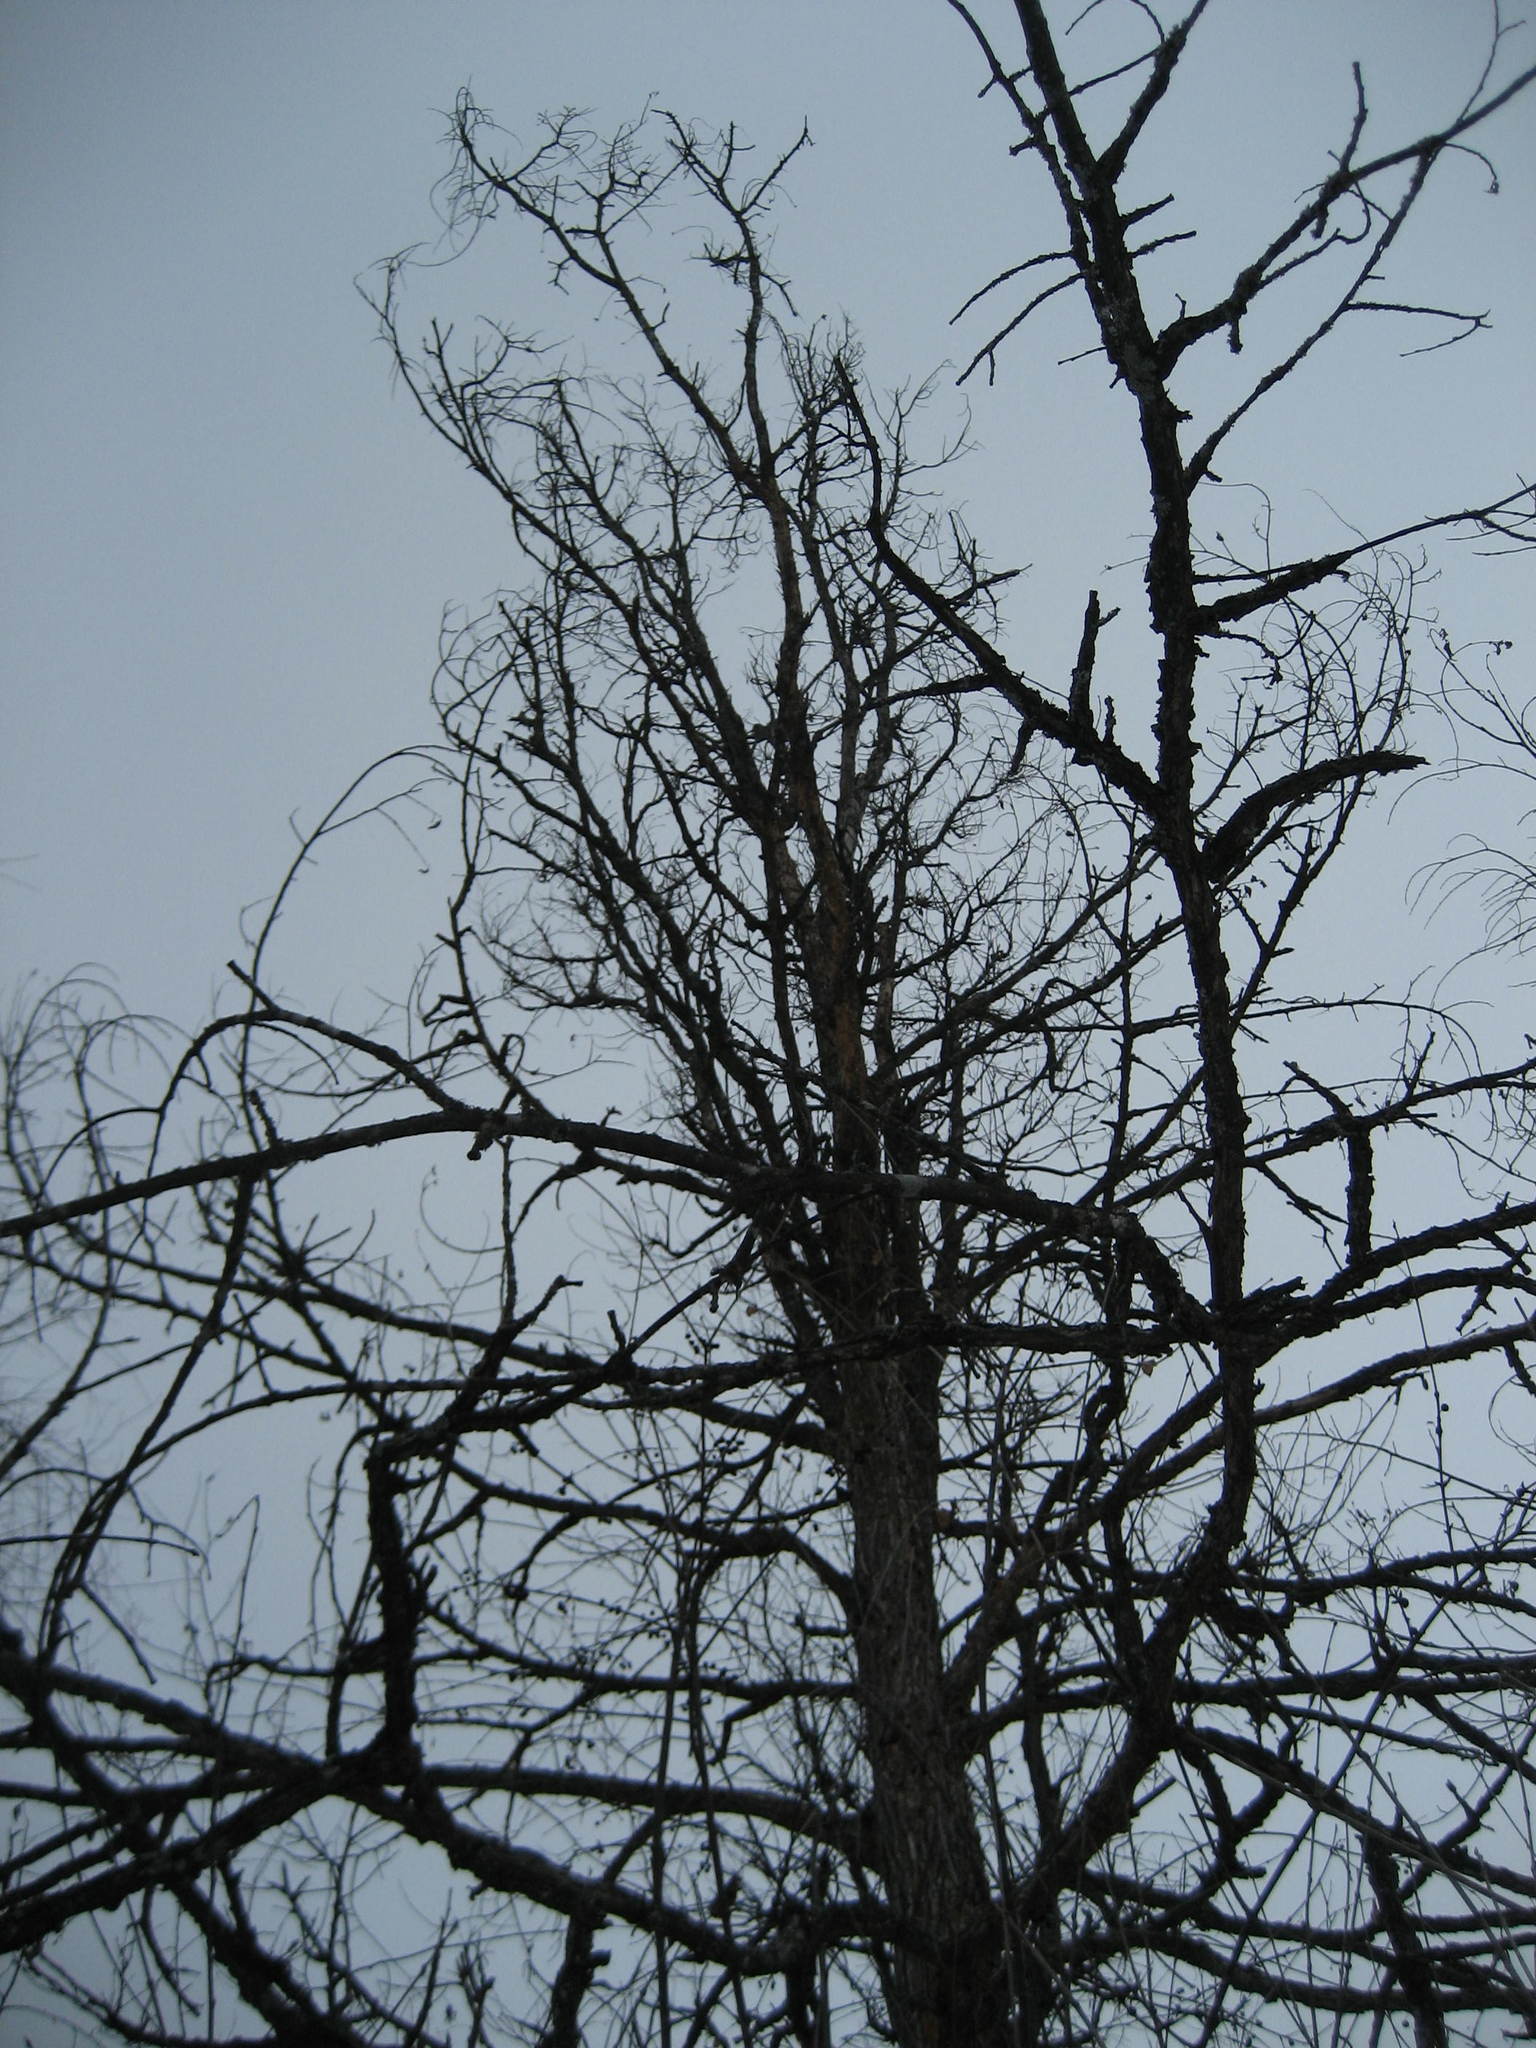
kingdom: Plantae
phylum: Tracheophyta
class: Magnoliopsida
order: Rosales
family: Ulmaceae
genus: Ulmus
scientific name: Ulmus thomasii
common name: Rock elm
